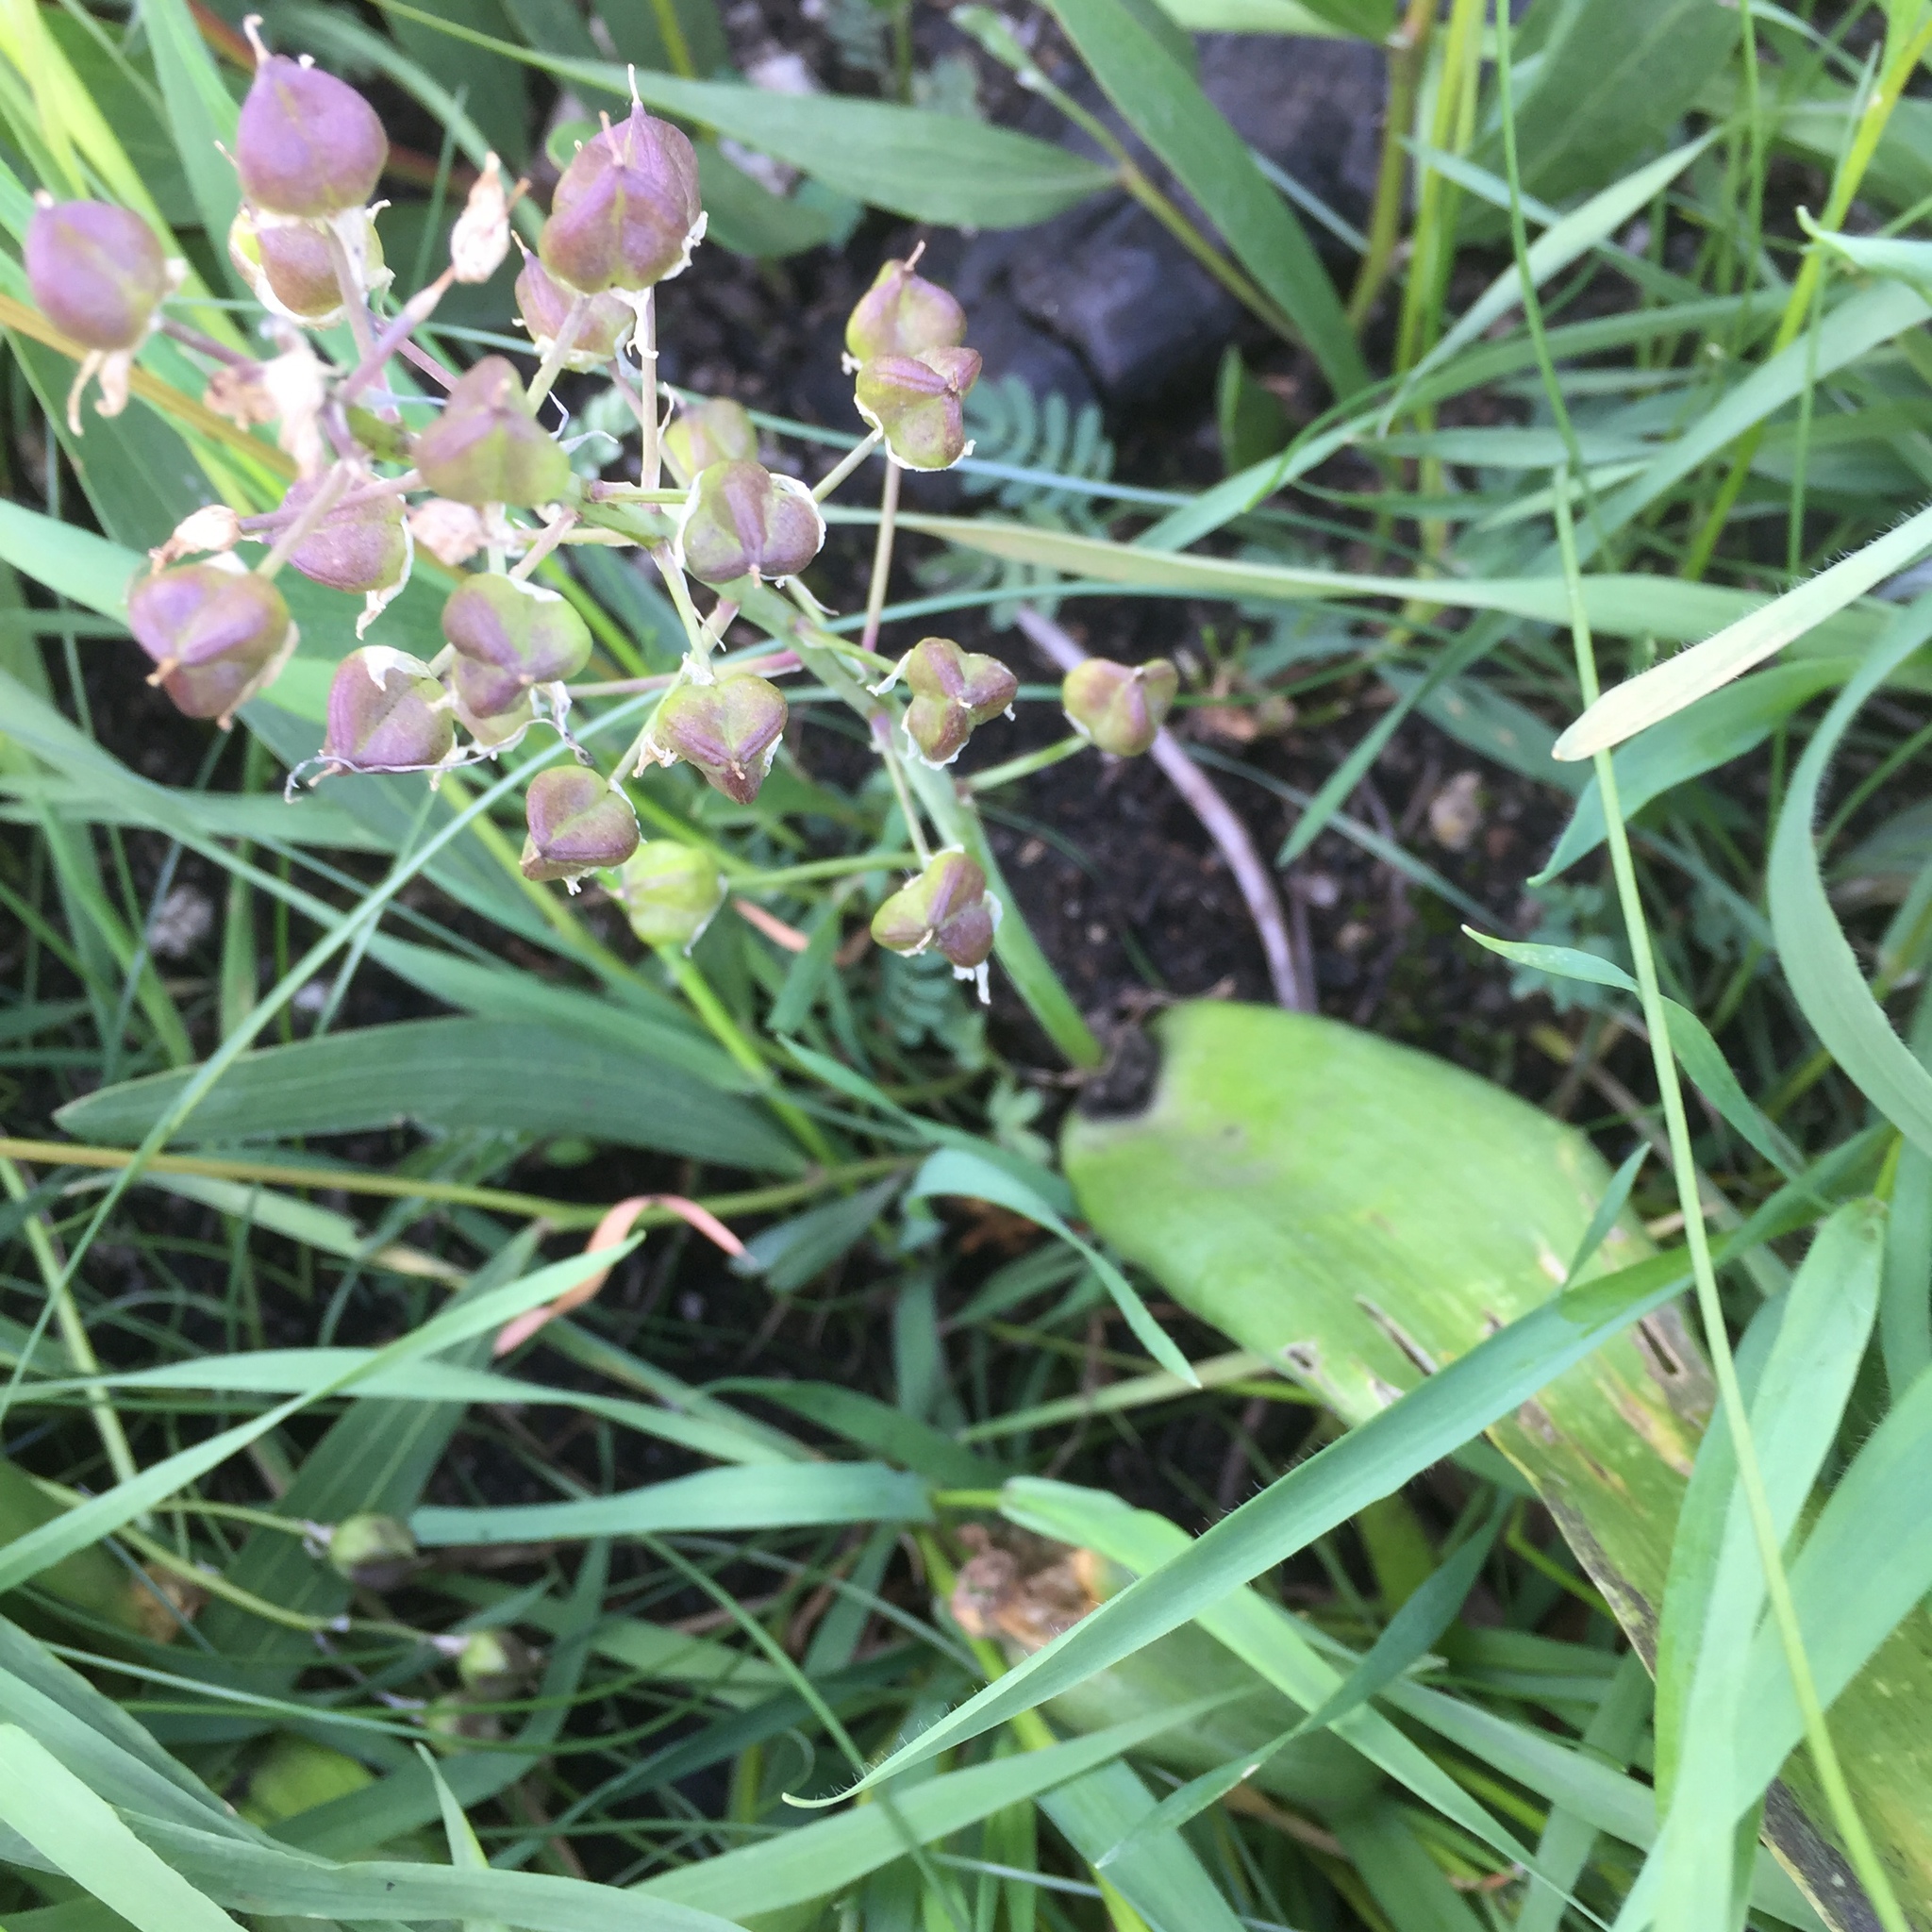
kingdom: Plantae
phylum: Tracheophyta
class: Liliopsida
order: Asparagales
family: Asparagaceae
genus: Scilla
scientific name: Scilla monophyllos
